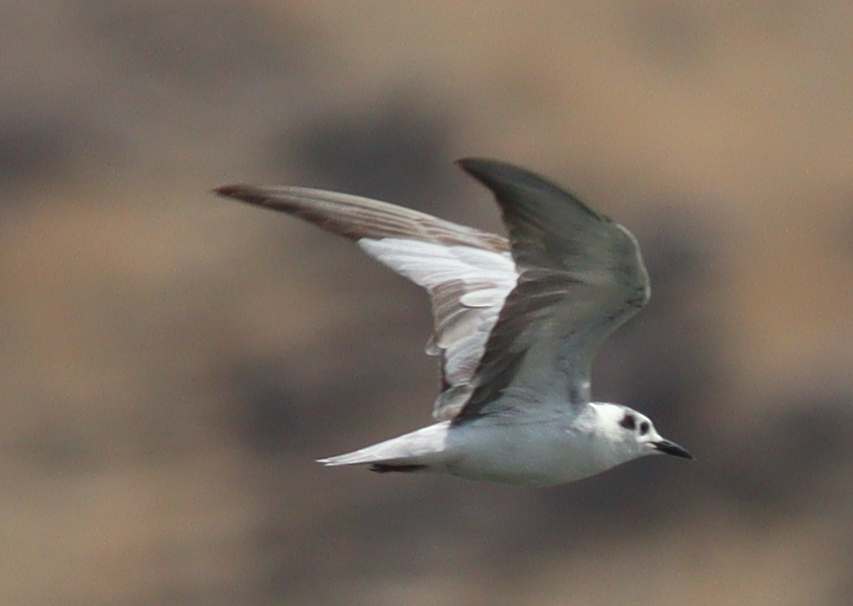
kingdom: Animalia
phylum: Chordata
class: Aves
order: Charadriiformes
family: Laridae
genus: Chlidonias
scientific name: Chlidonias leucopterus
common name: White-winged tern
